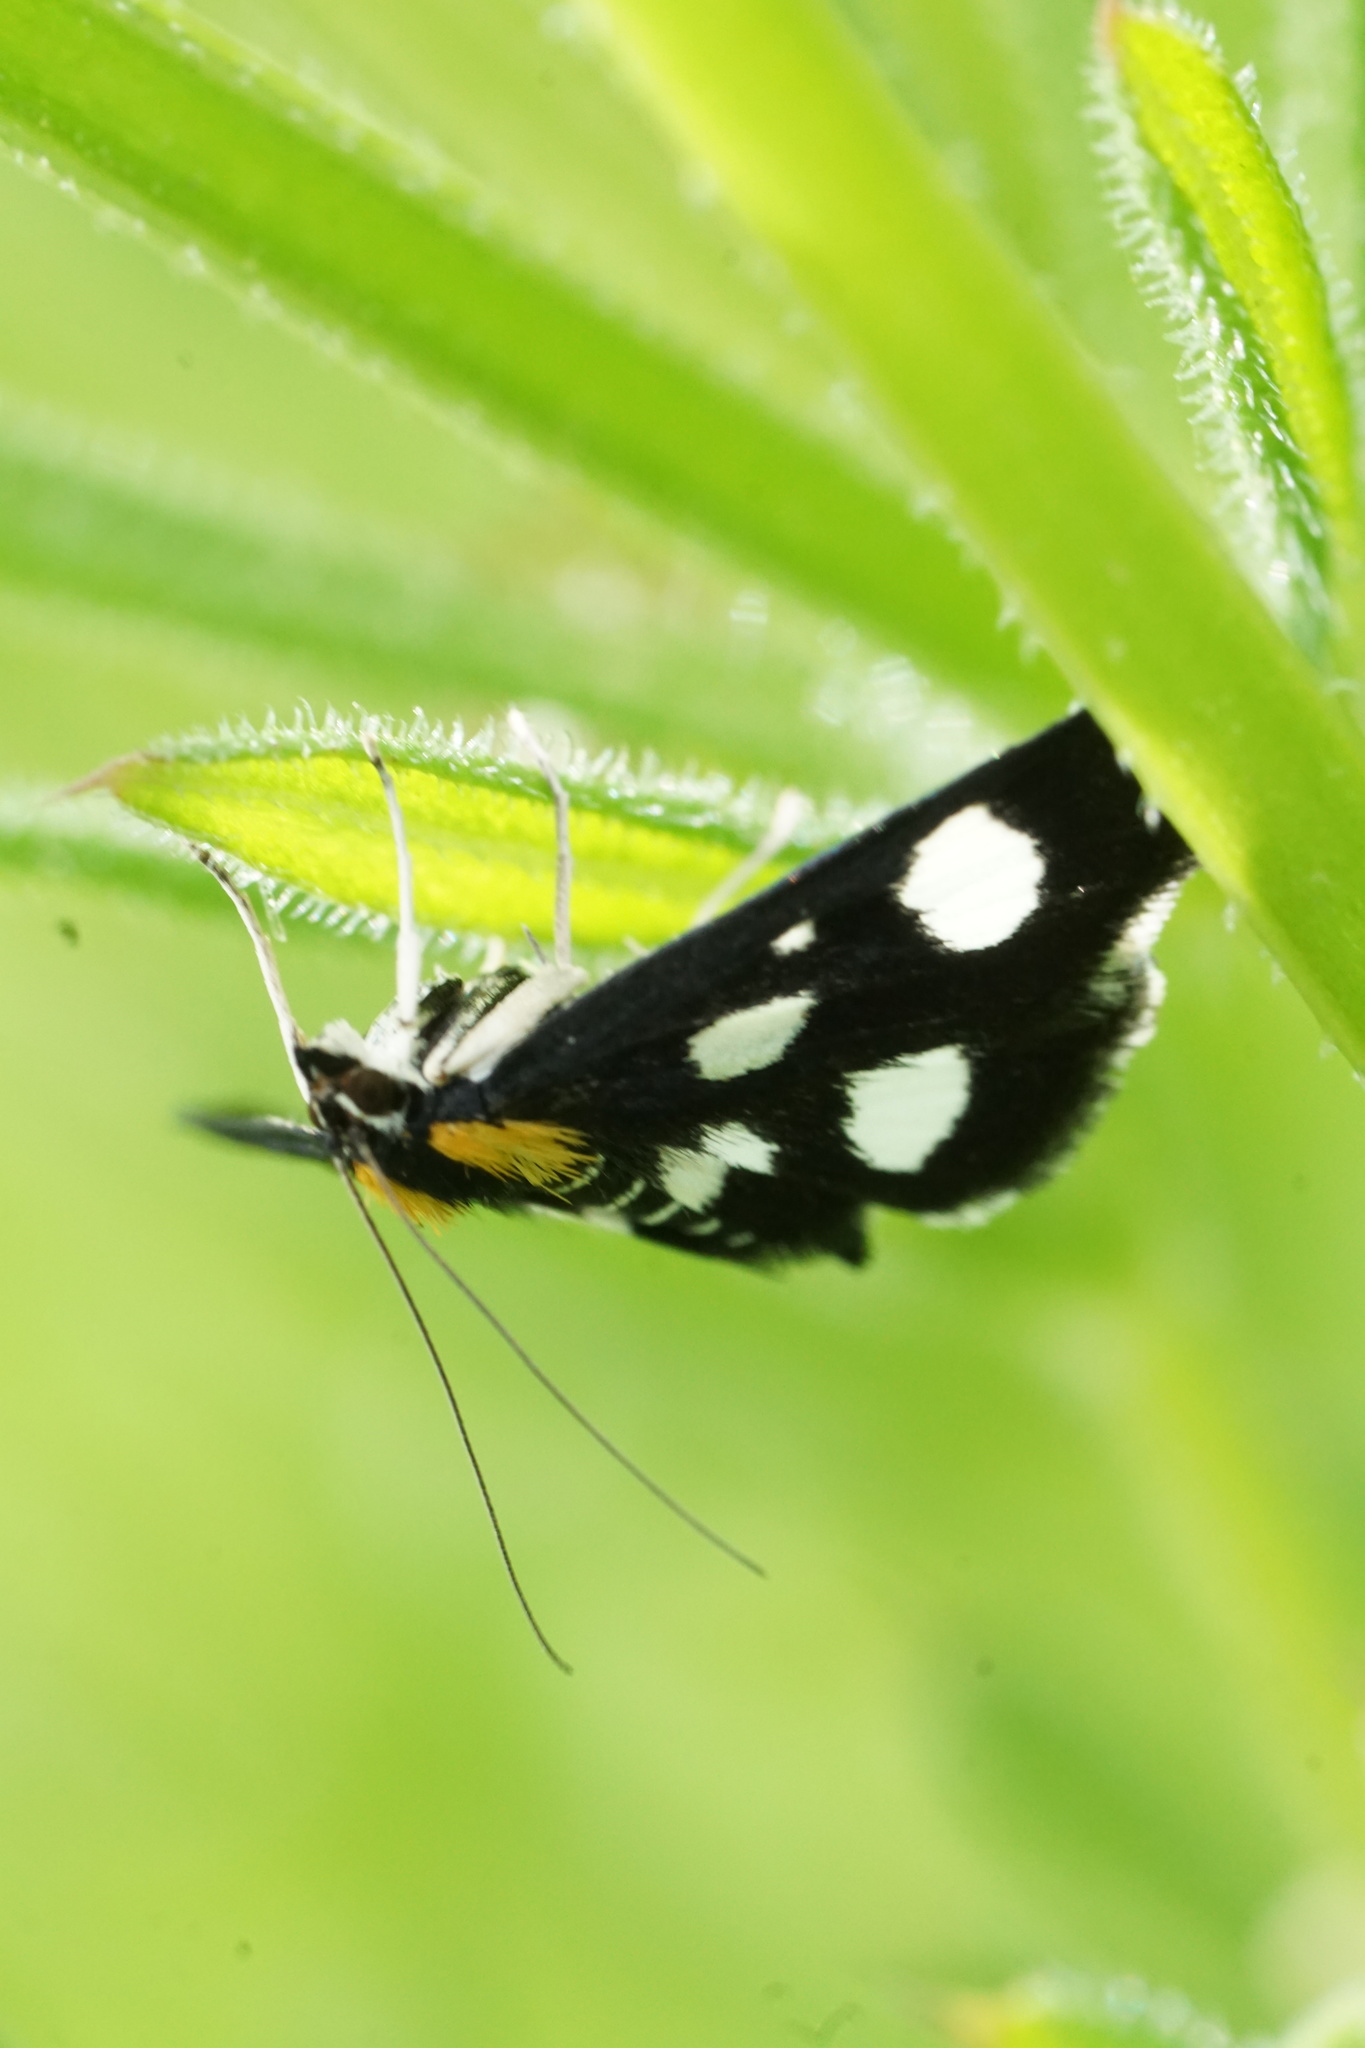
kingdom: Animalia
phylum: Arthropoda
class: Insecta
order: Lepidoptera
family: Crambidae
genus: Anania
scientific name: Anania funebris
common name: White-spotted sable moth
